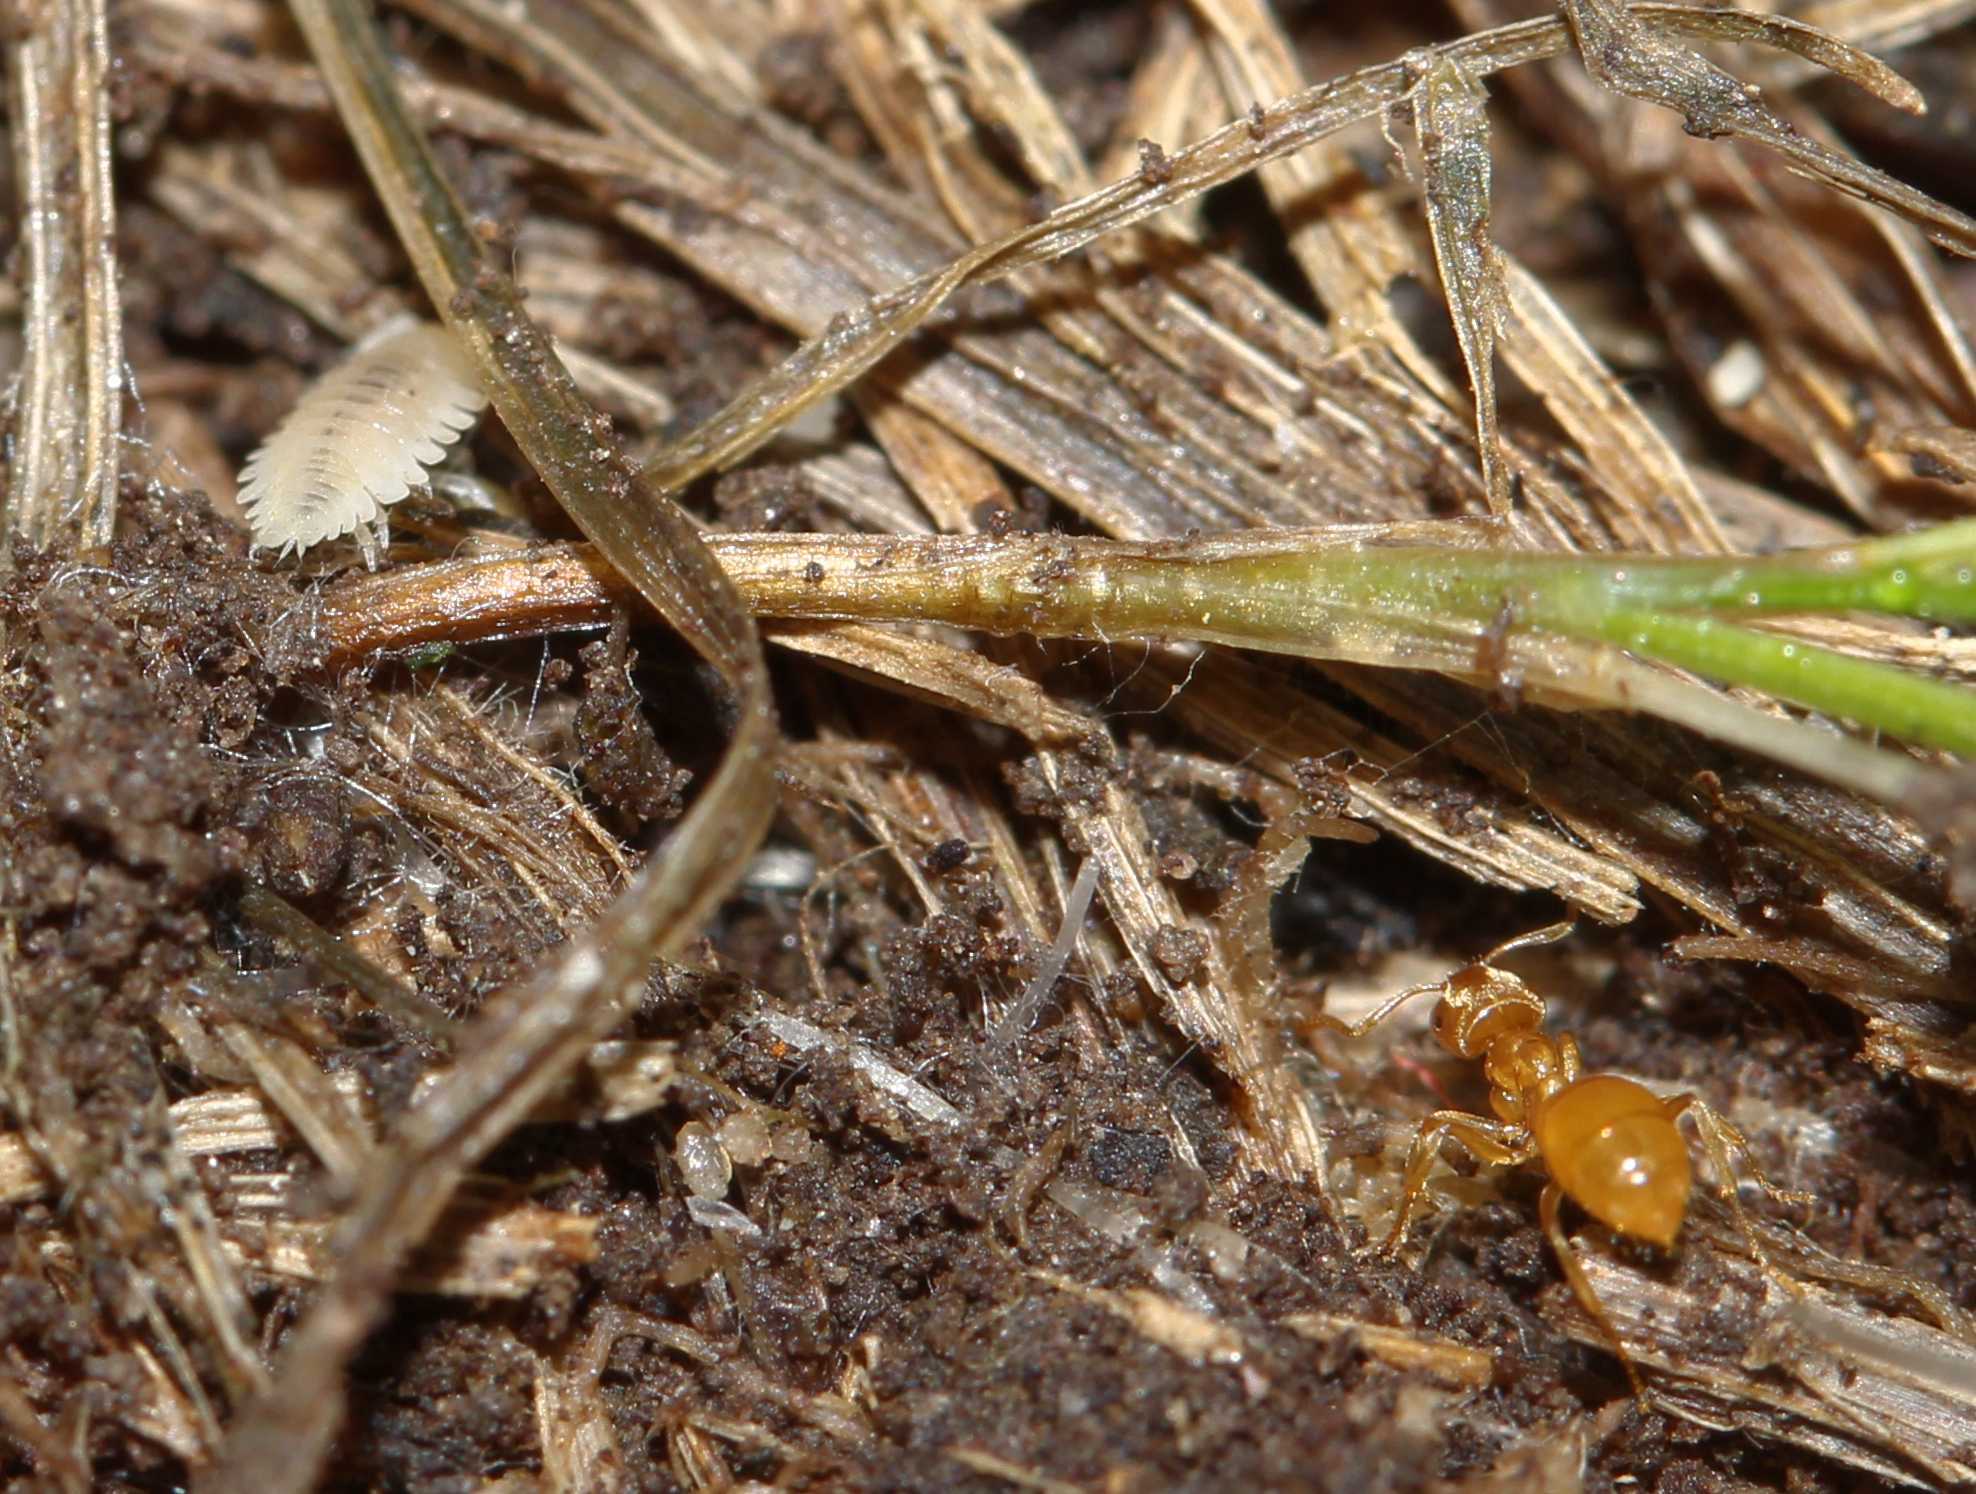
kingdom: Animalia
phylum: Arthropoda
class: Insecta
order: Hymenoptera
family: Formicidae
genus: Lasius
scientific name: Lasius flavus
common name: Blond field ant
